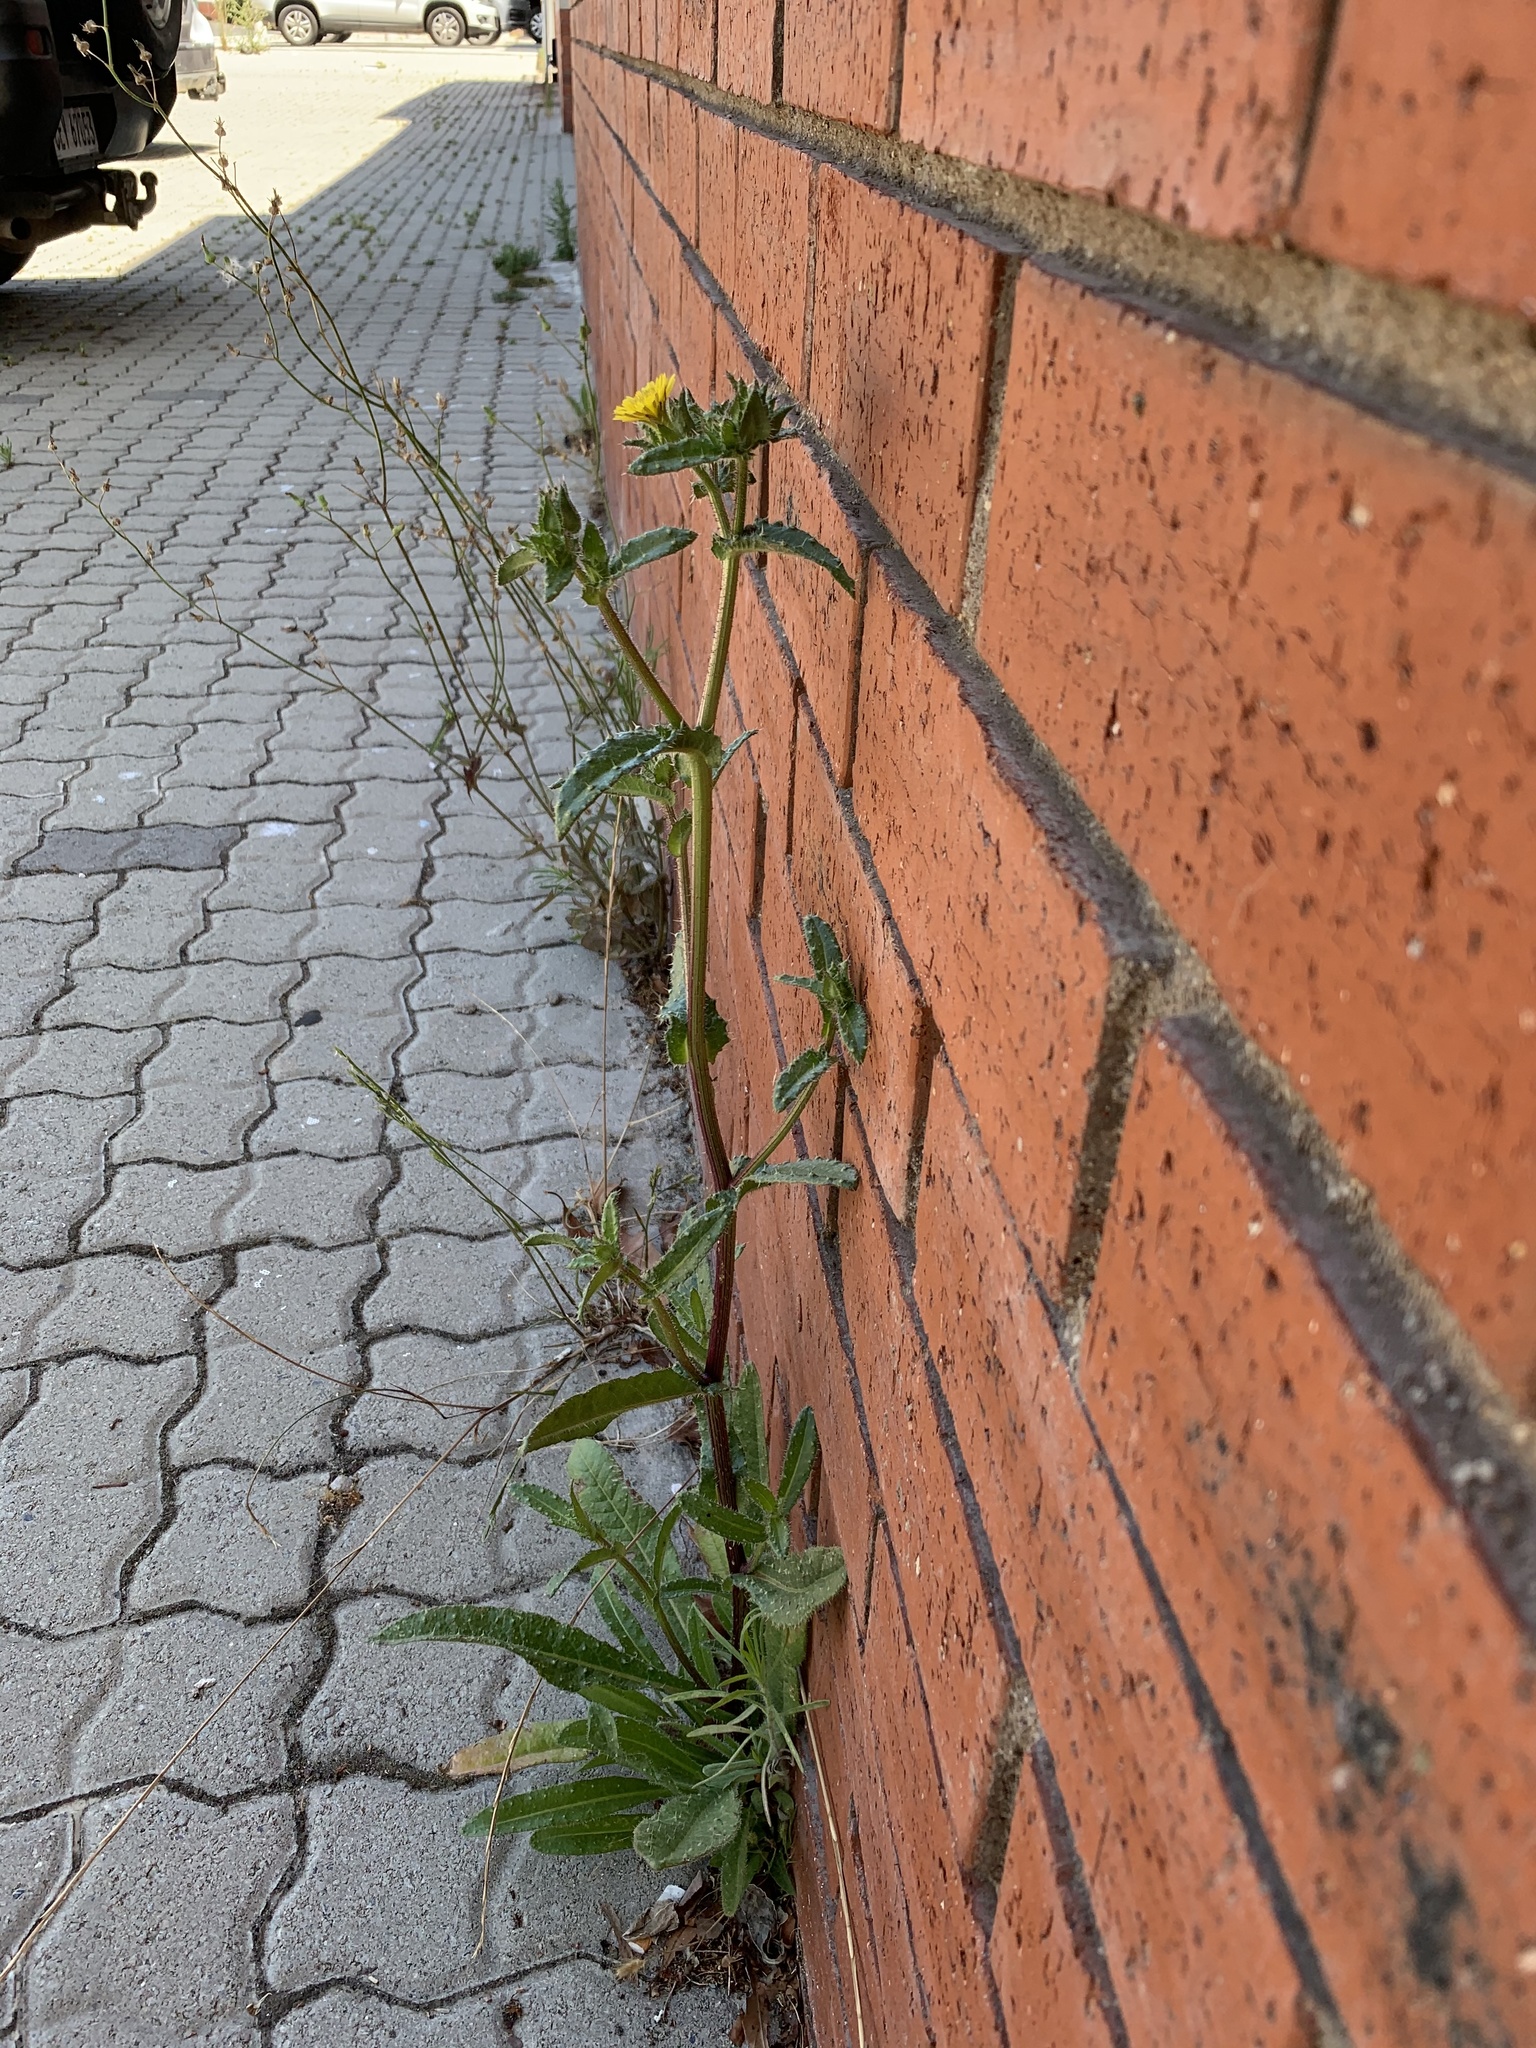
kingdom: Plantae
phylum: Tracheophyta
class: Magnoliopsida
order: Asterales
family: Asteraceae
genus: Helminthotheca
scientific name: Helminthotheca echioides
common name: Ox-tongue
